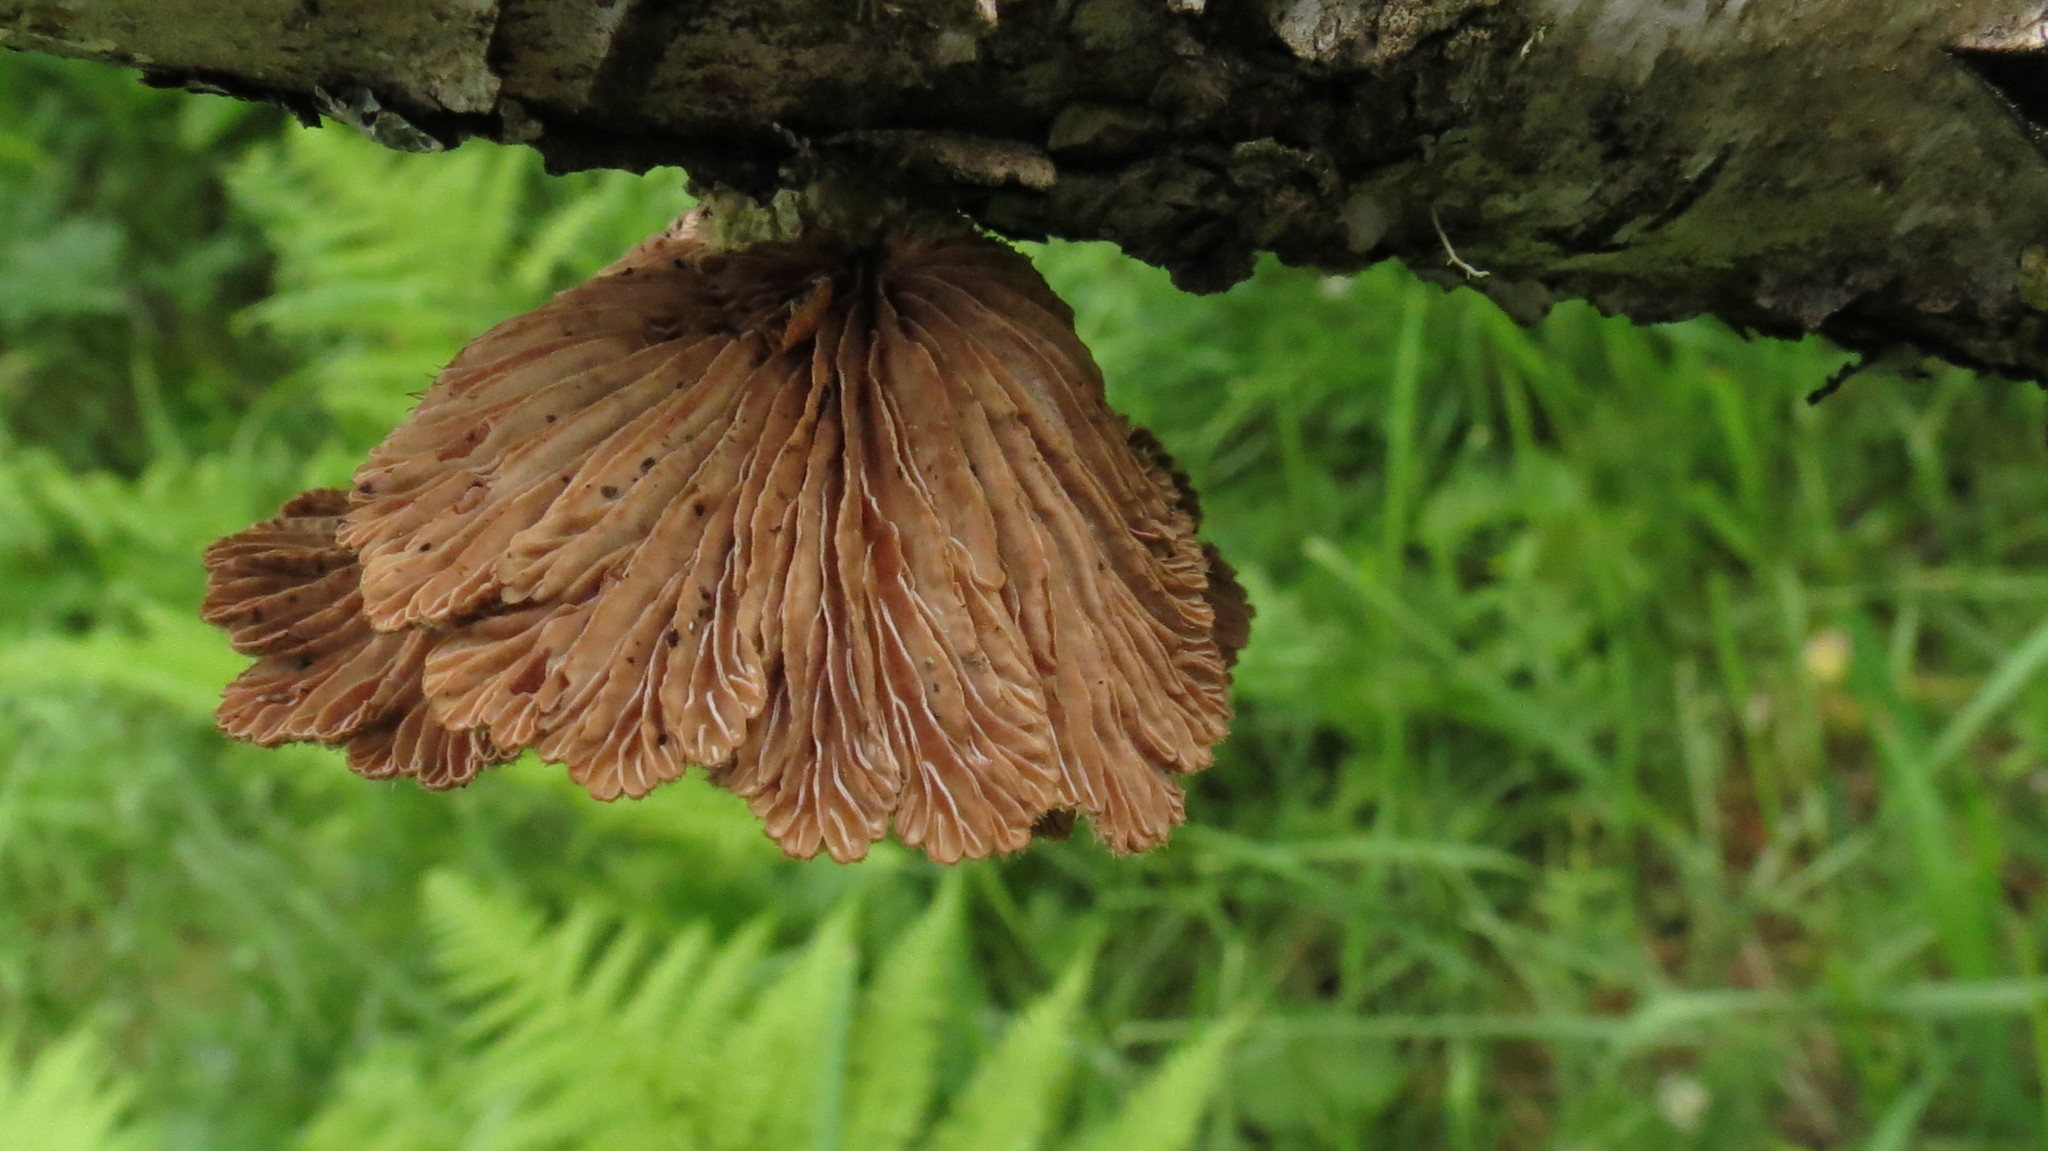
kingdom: Fungi
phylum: Basidiomycota
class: Agaricomycetes
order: Agaricales
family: Schizophyllaceae
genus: Schizophyllum
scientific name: Schizophyllum commune
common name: Common porecrust
